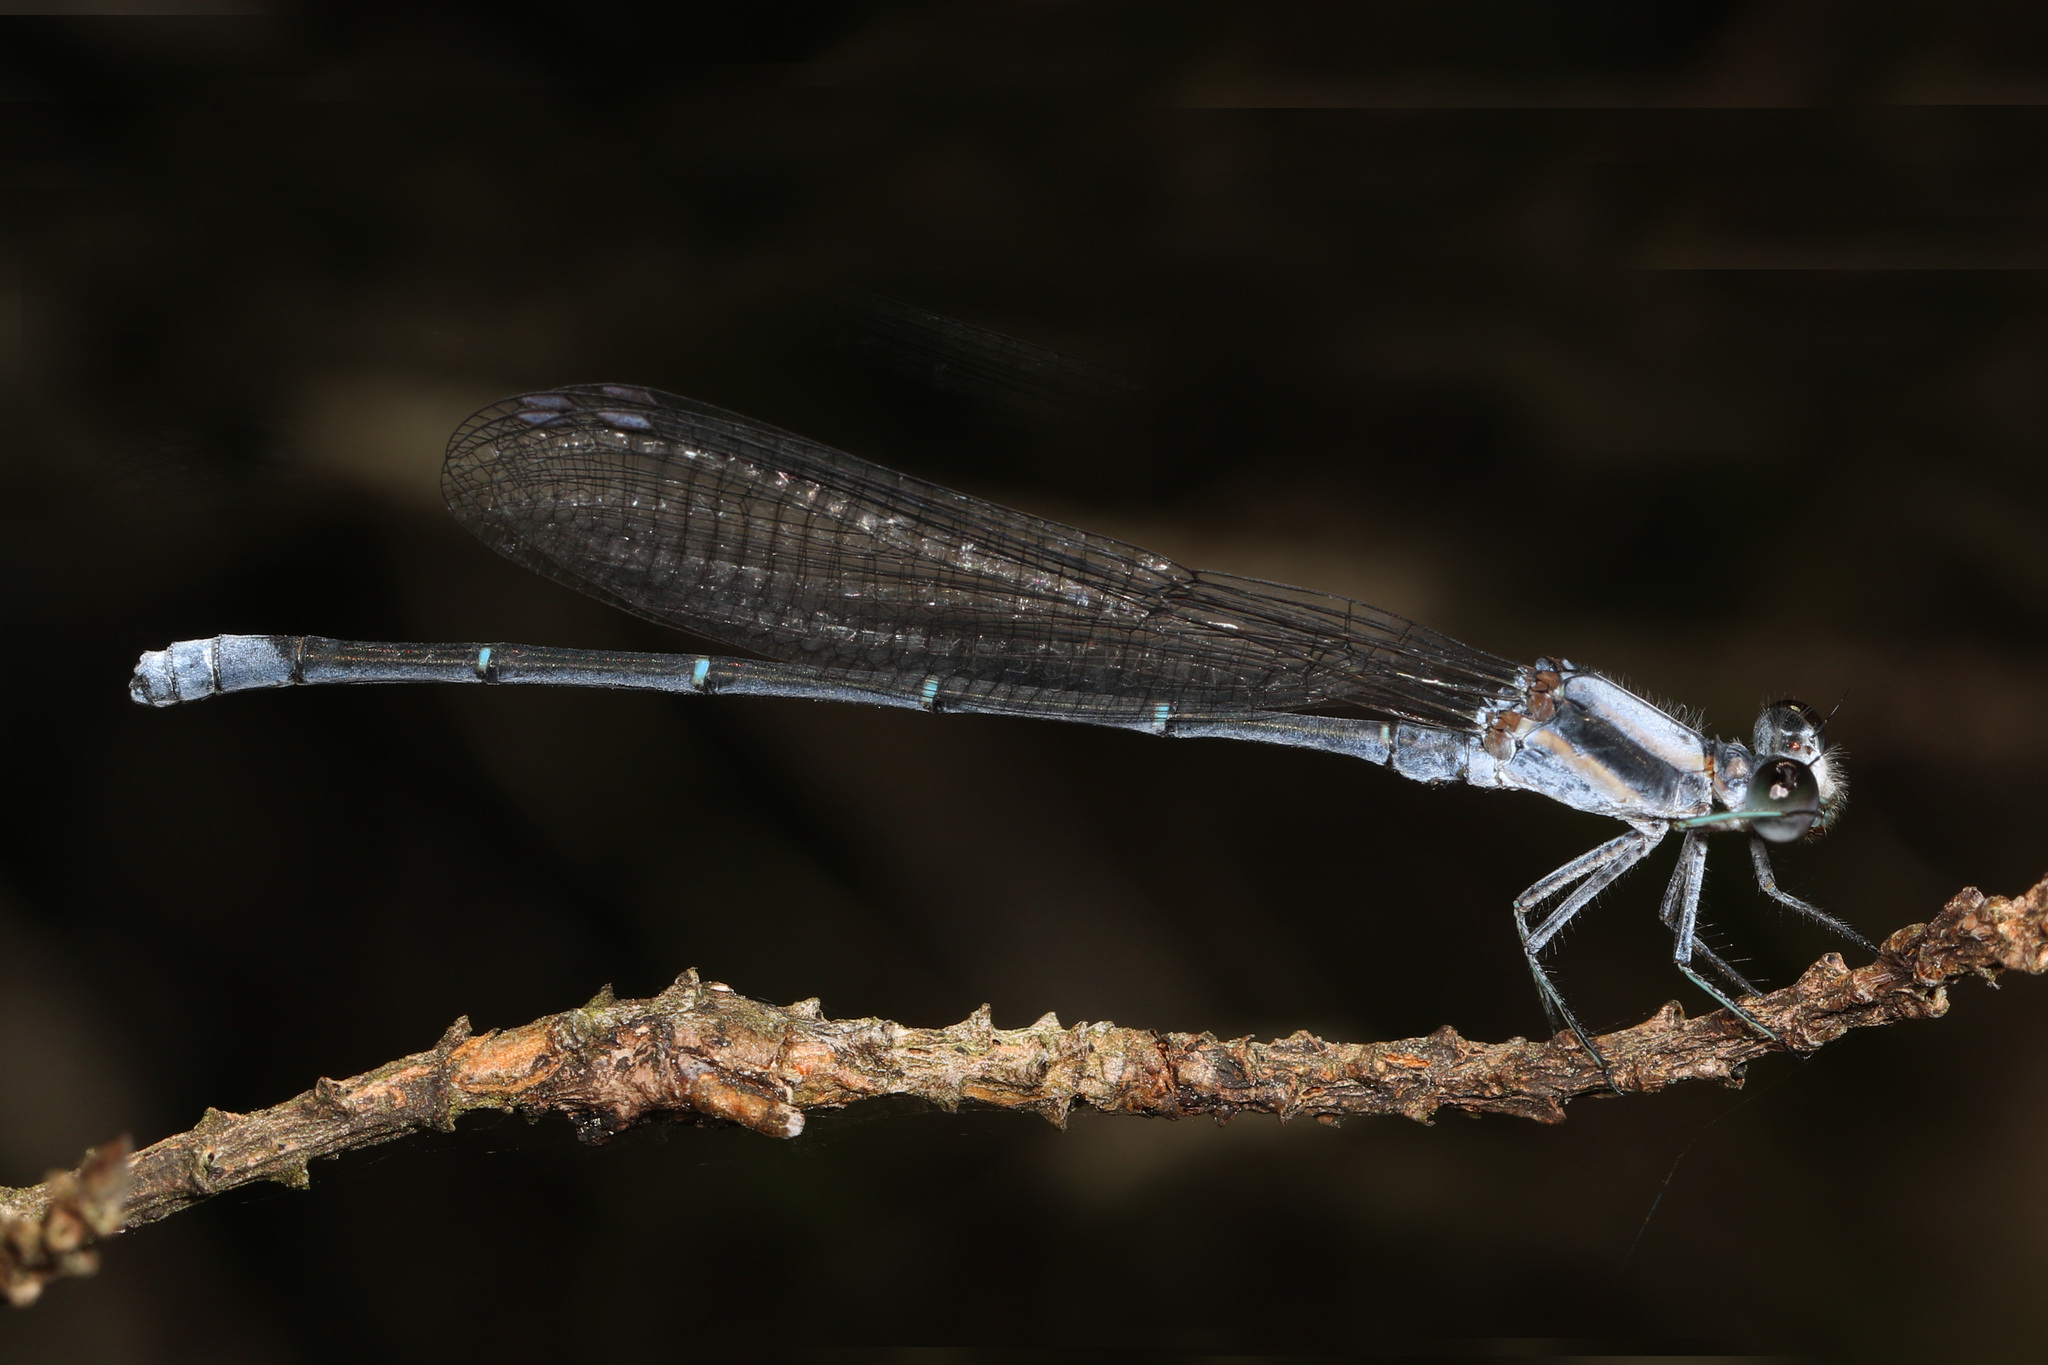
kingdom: Animalia
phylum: Arthropoda
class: Insecta
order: Odonata
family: Coenagrionidae
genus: Argia
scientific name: Argia moesta
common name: Powdered dancer
